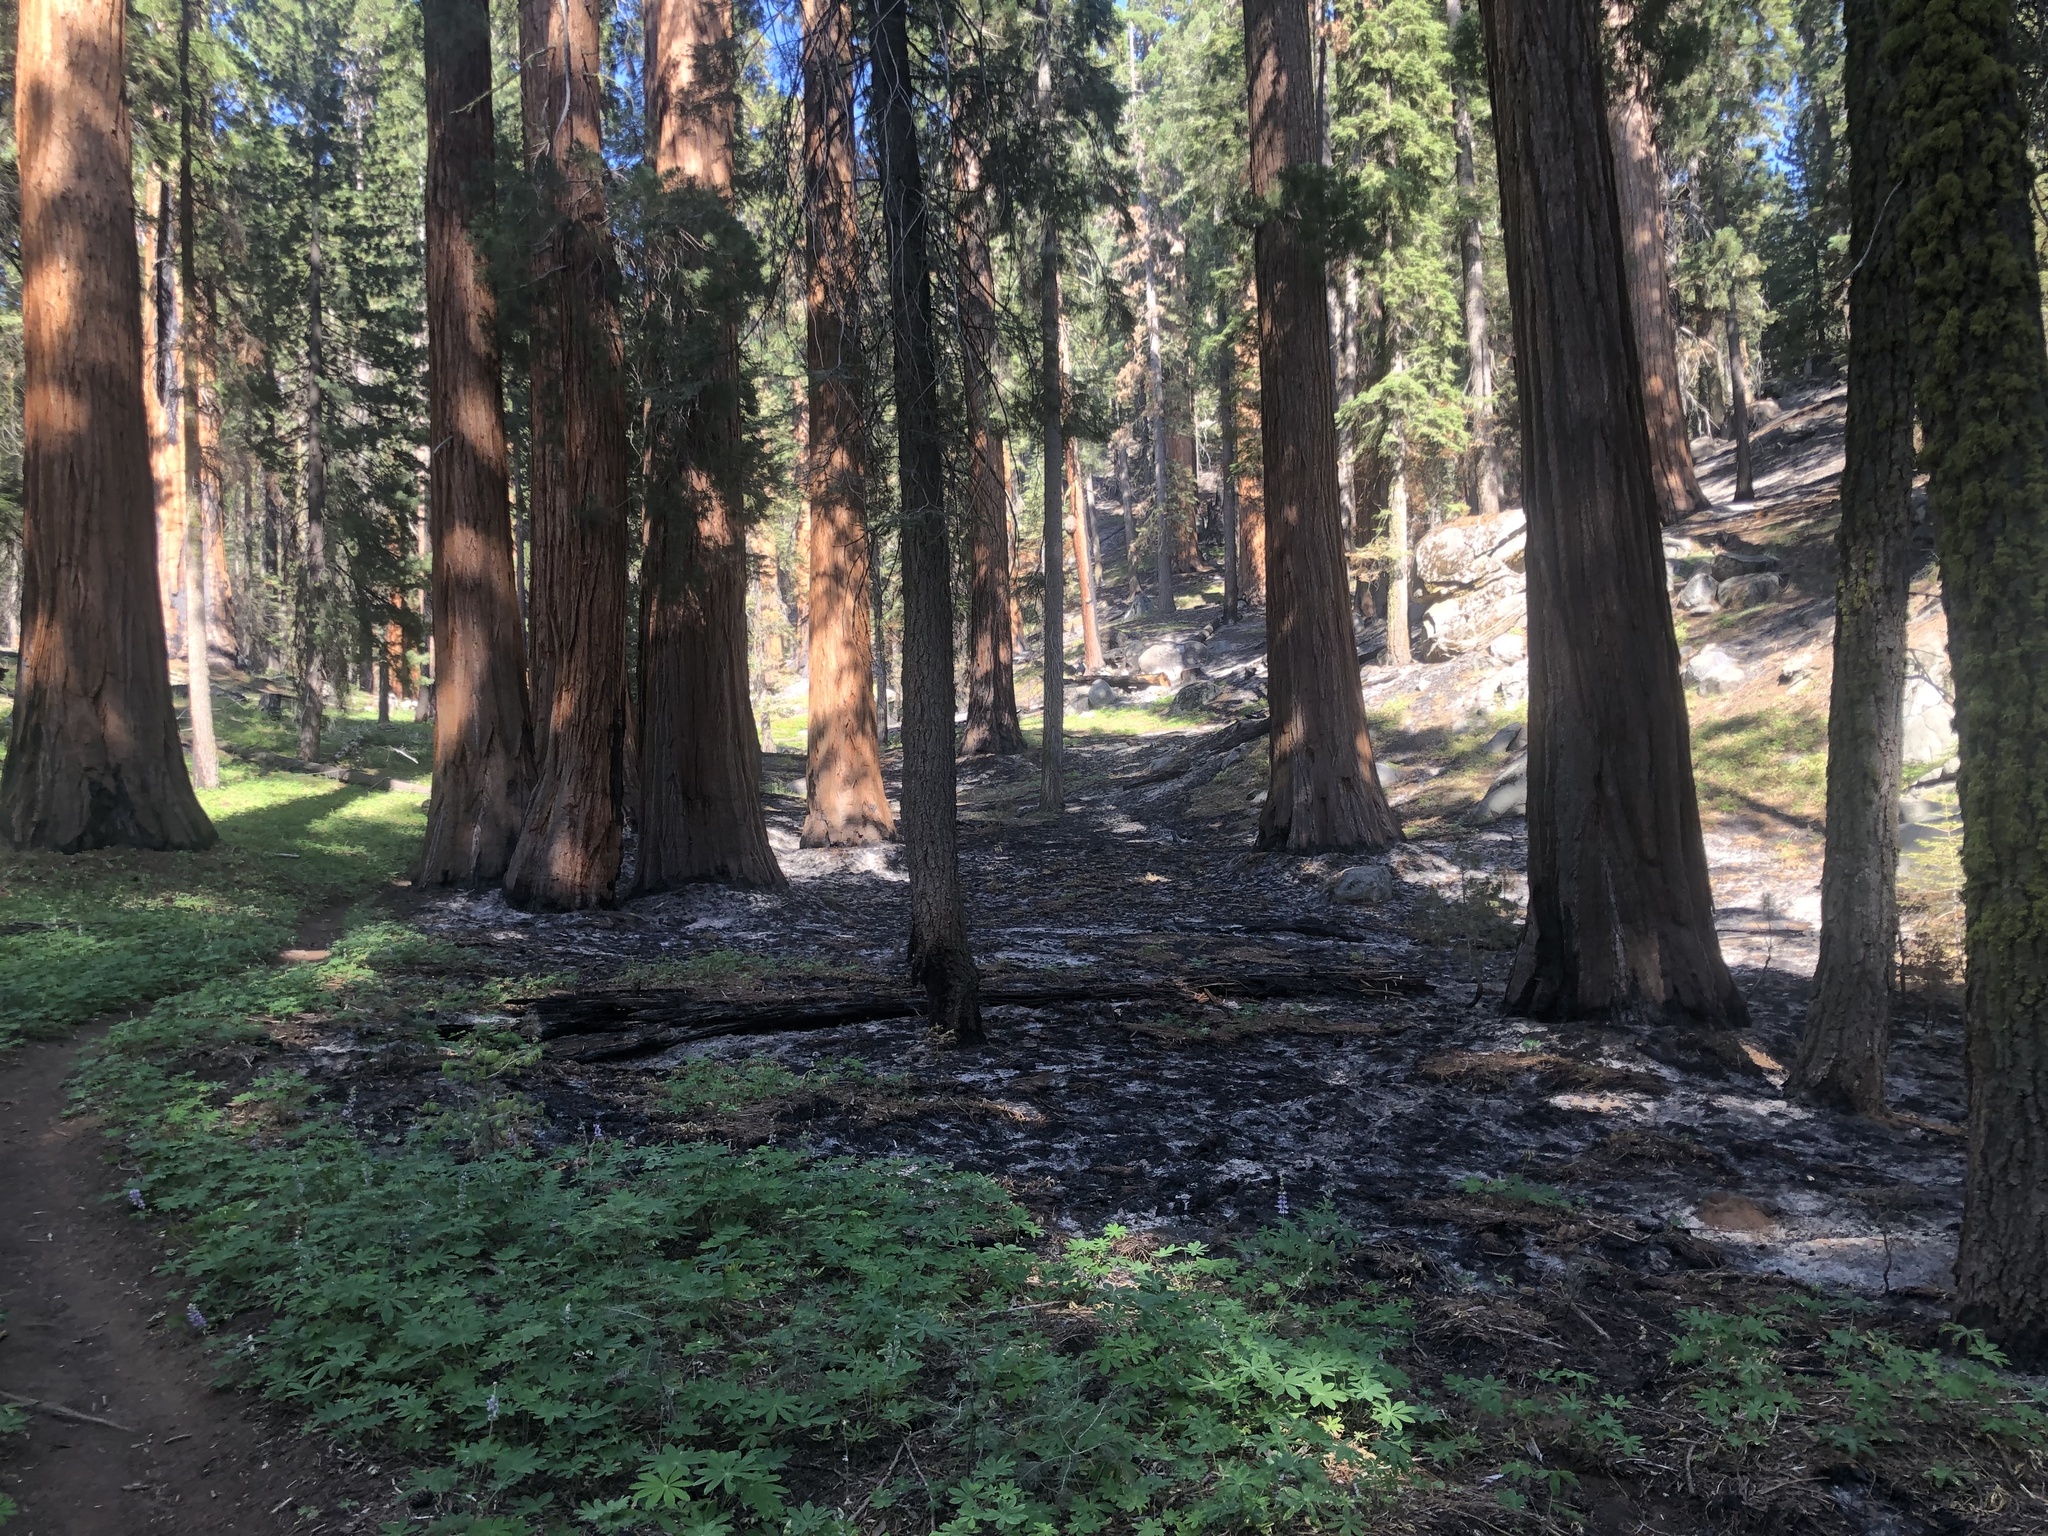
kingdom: Plantae
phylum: Tracheophyta
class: Pinopsida
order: Pinales
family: Cupressaceae
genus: Sequoiadendron
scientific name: Sequoiadendron giganteum
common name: Wellingtonia
